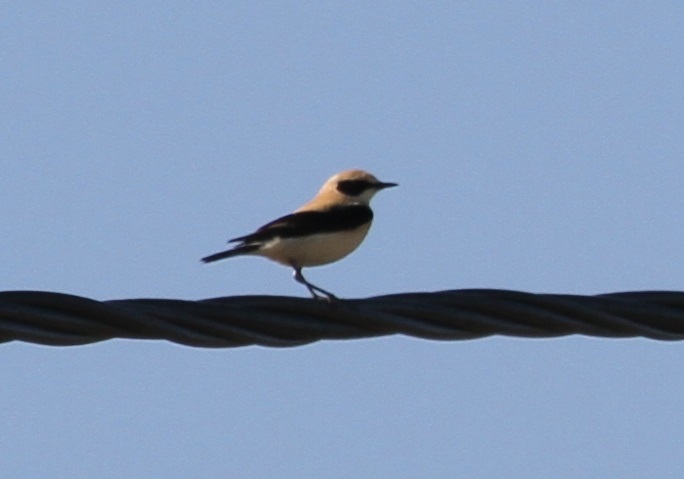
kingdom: Animalia
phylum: Chordata
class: Aves
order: Passeriformes
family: Muscicapidae
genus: Oenanthe
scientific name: Oenanthe hispanica
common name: Black-eared wheatear
